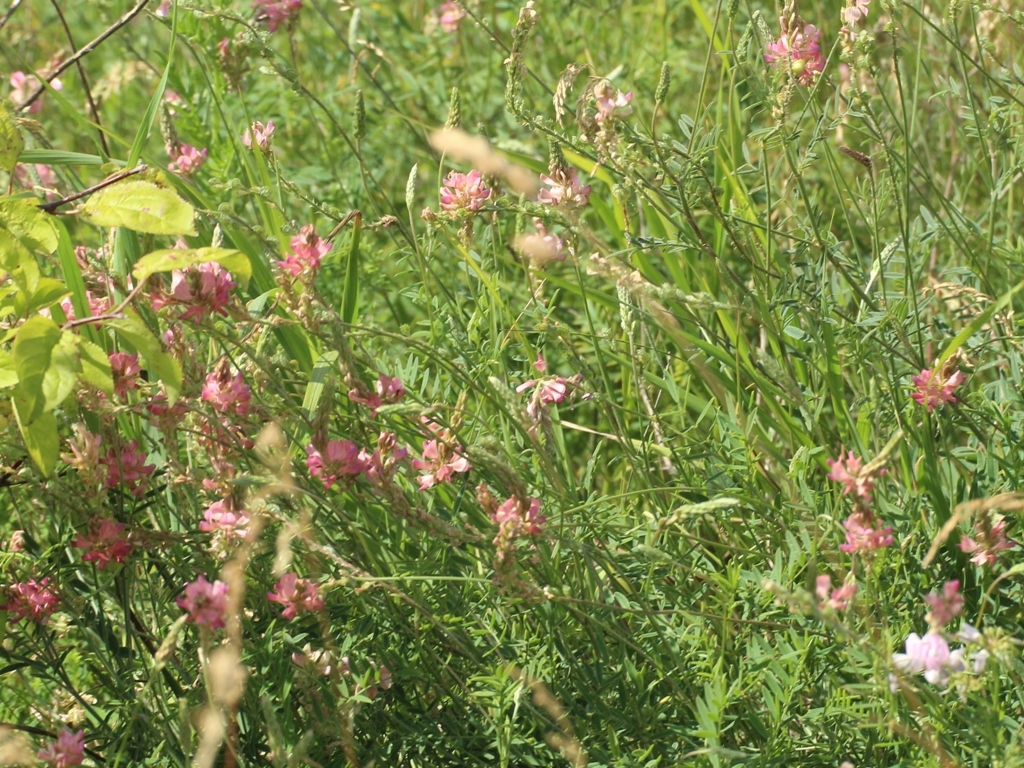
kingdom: Plantae
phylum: Tracheophyta
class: Magnoliopsida
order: Fabales
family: Fabaceae
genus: Onobrychis
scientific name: Onobrychis viciifolia
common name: Sainfoin
